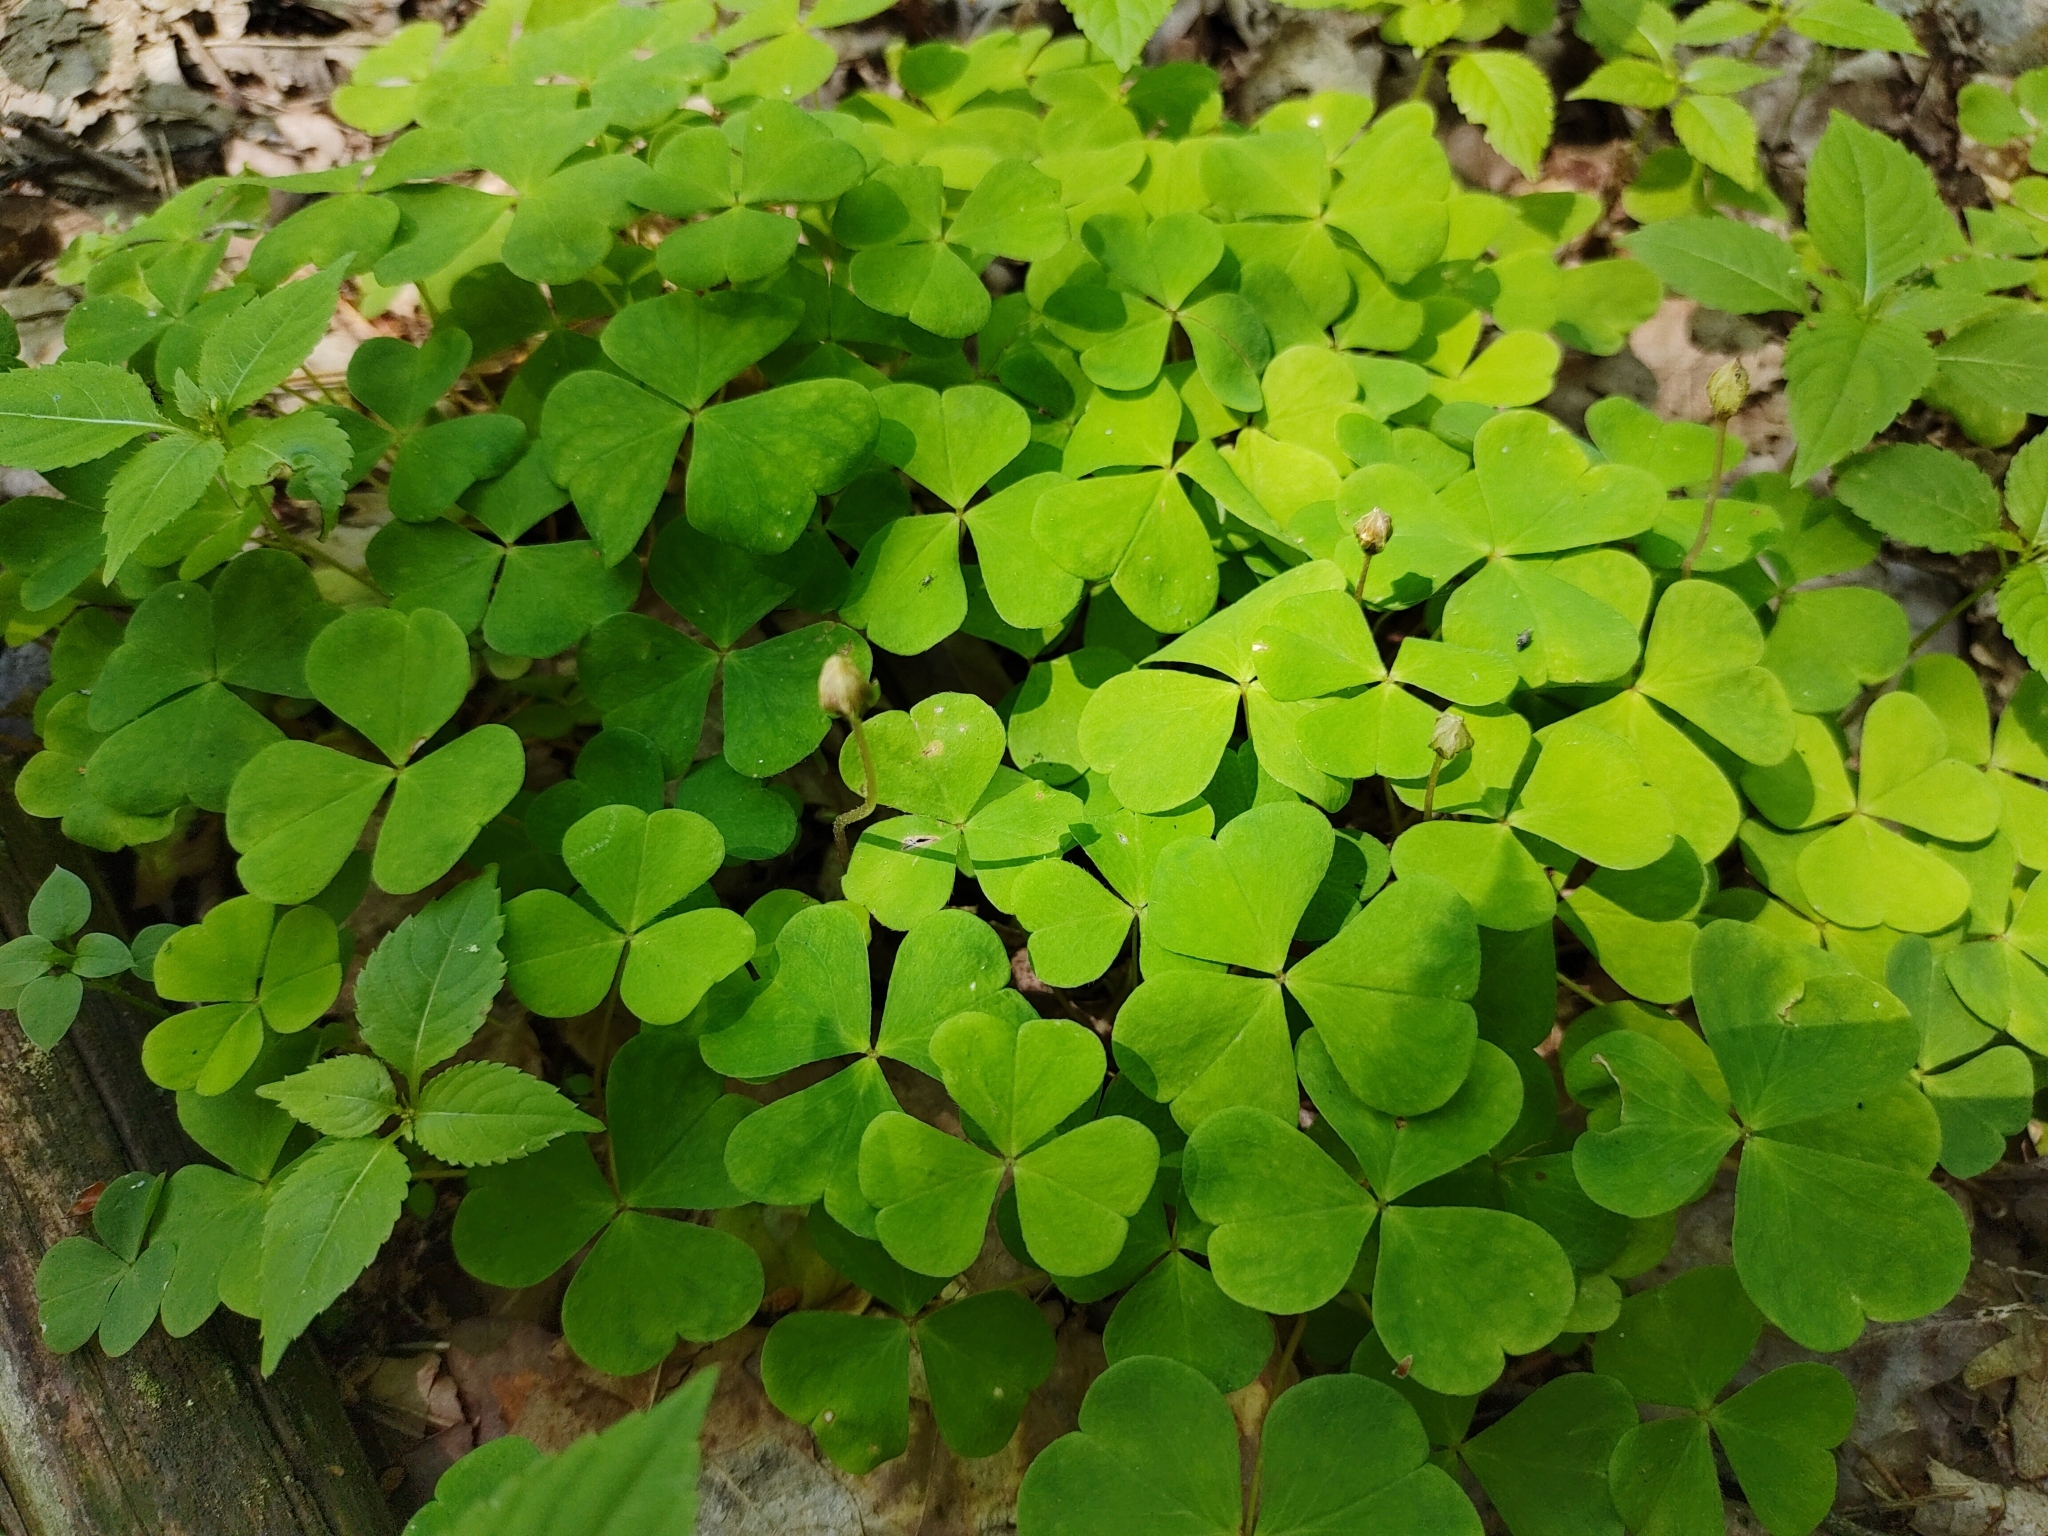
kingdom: Plantae
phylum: Tracheophyta
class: Magnoliopsida
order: Oxalidales
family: Oxalidaceae
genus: Oxalis
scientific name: Oxalis acetosella
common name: Wood-sorrel
